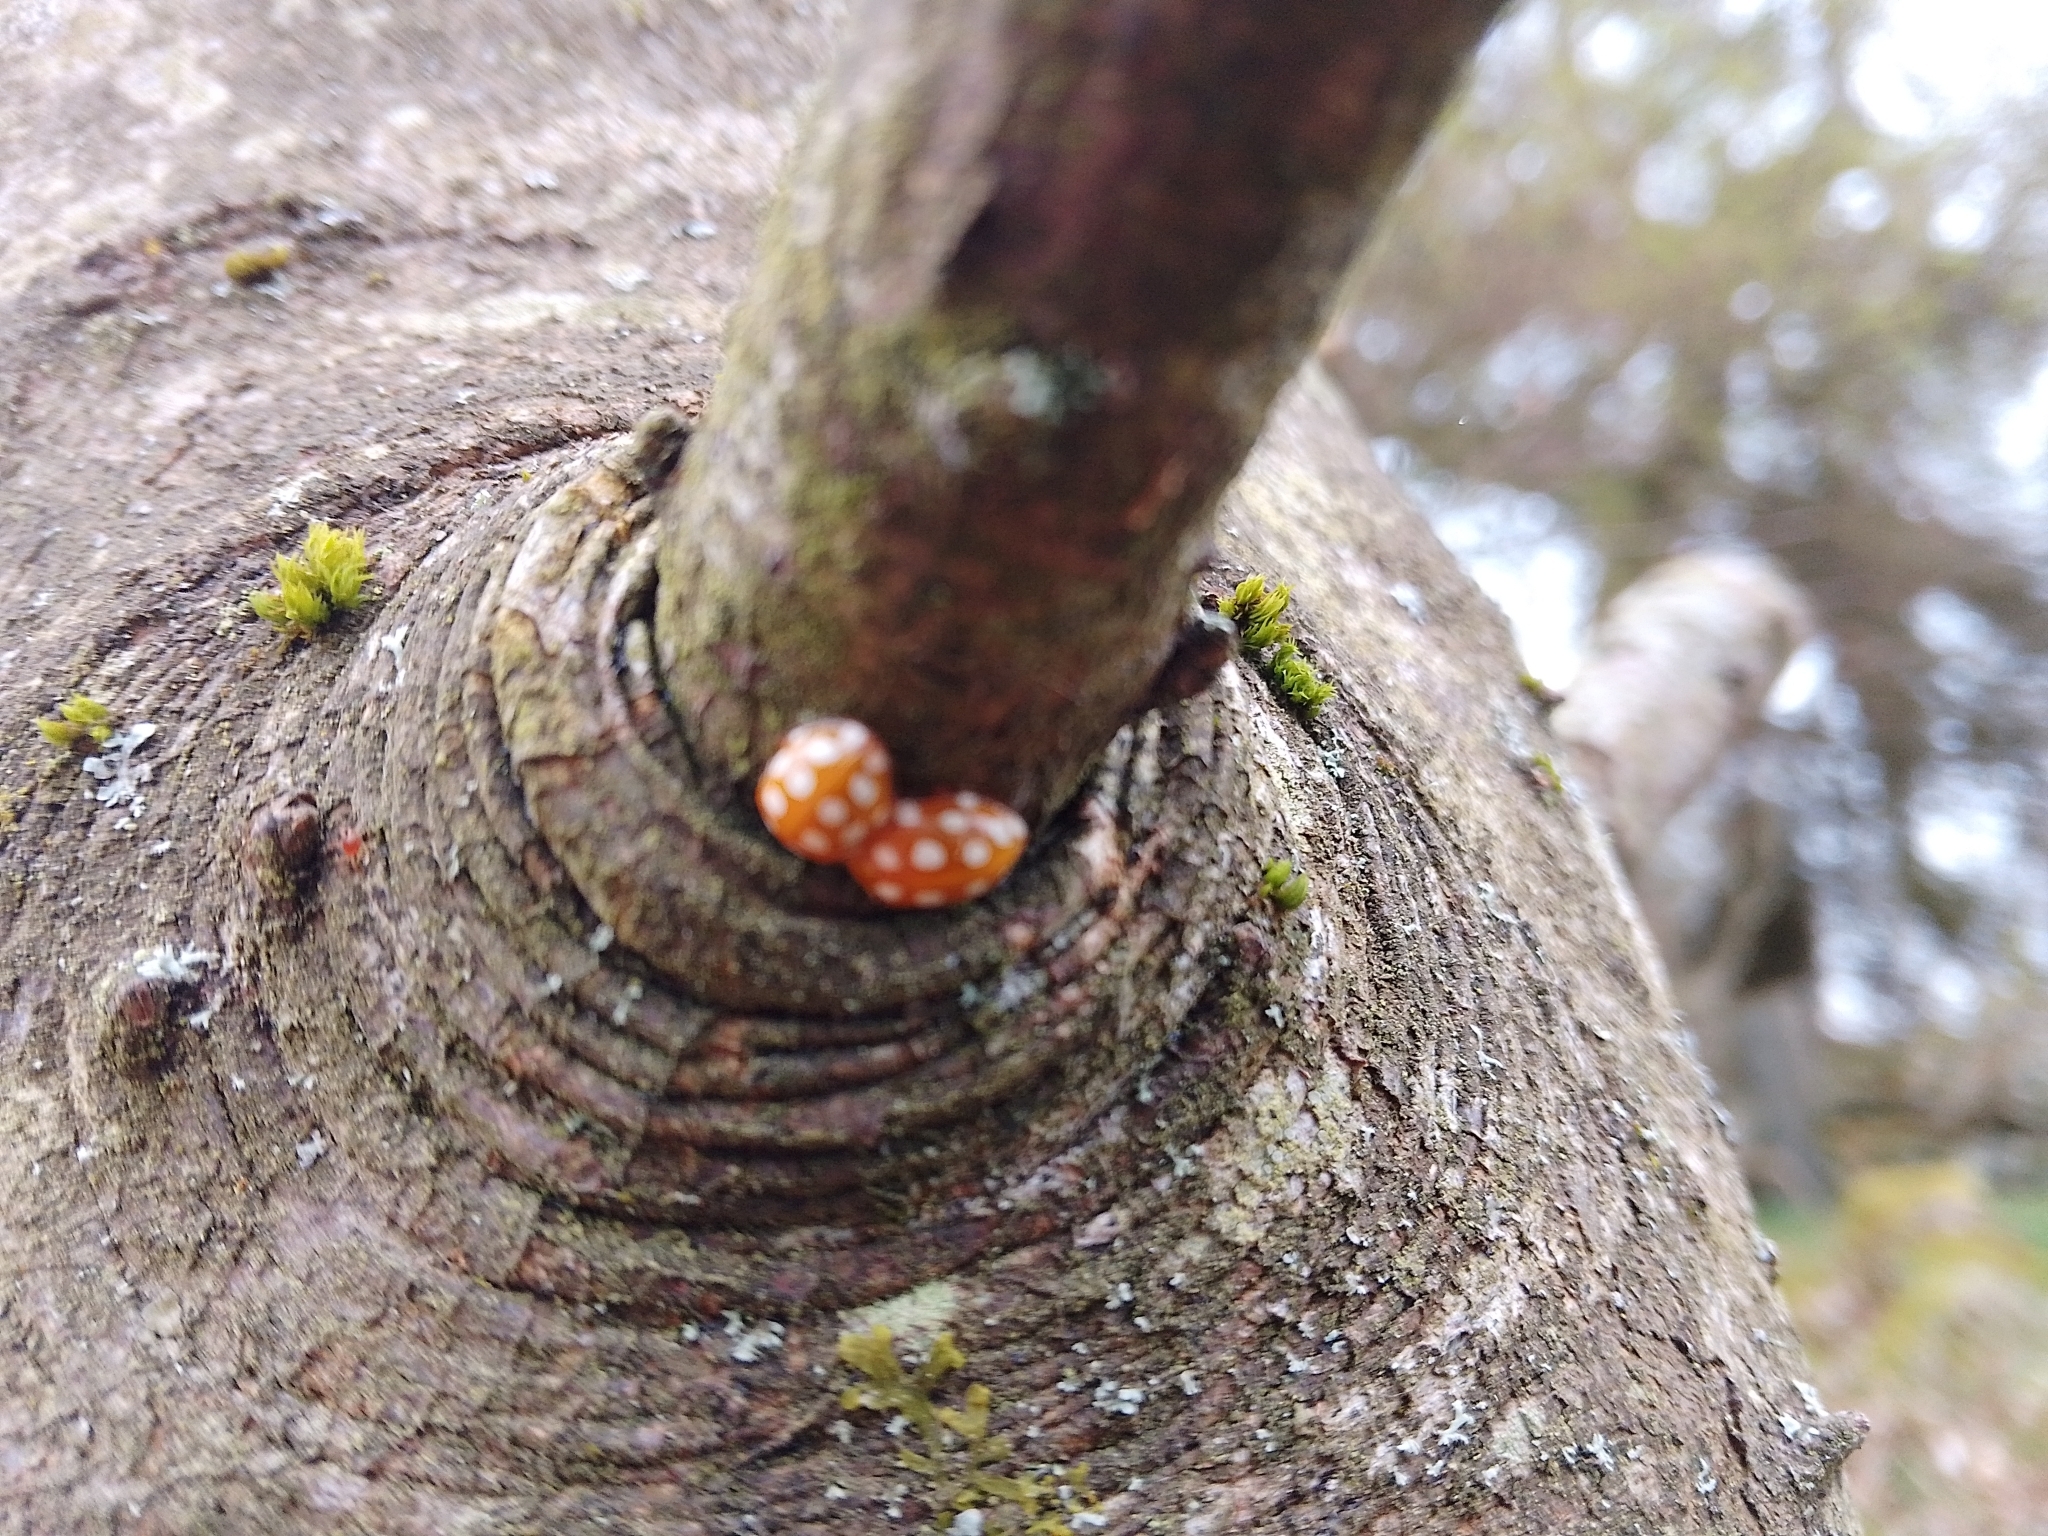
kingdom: Animalia
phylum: Arthropoda
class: Insecta
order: Coleoptera
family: Coccinellidae
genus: Halyzia
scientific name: Halyzia sedecimguttata
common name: Orange ladybird
